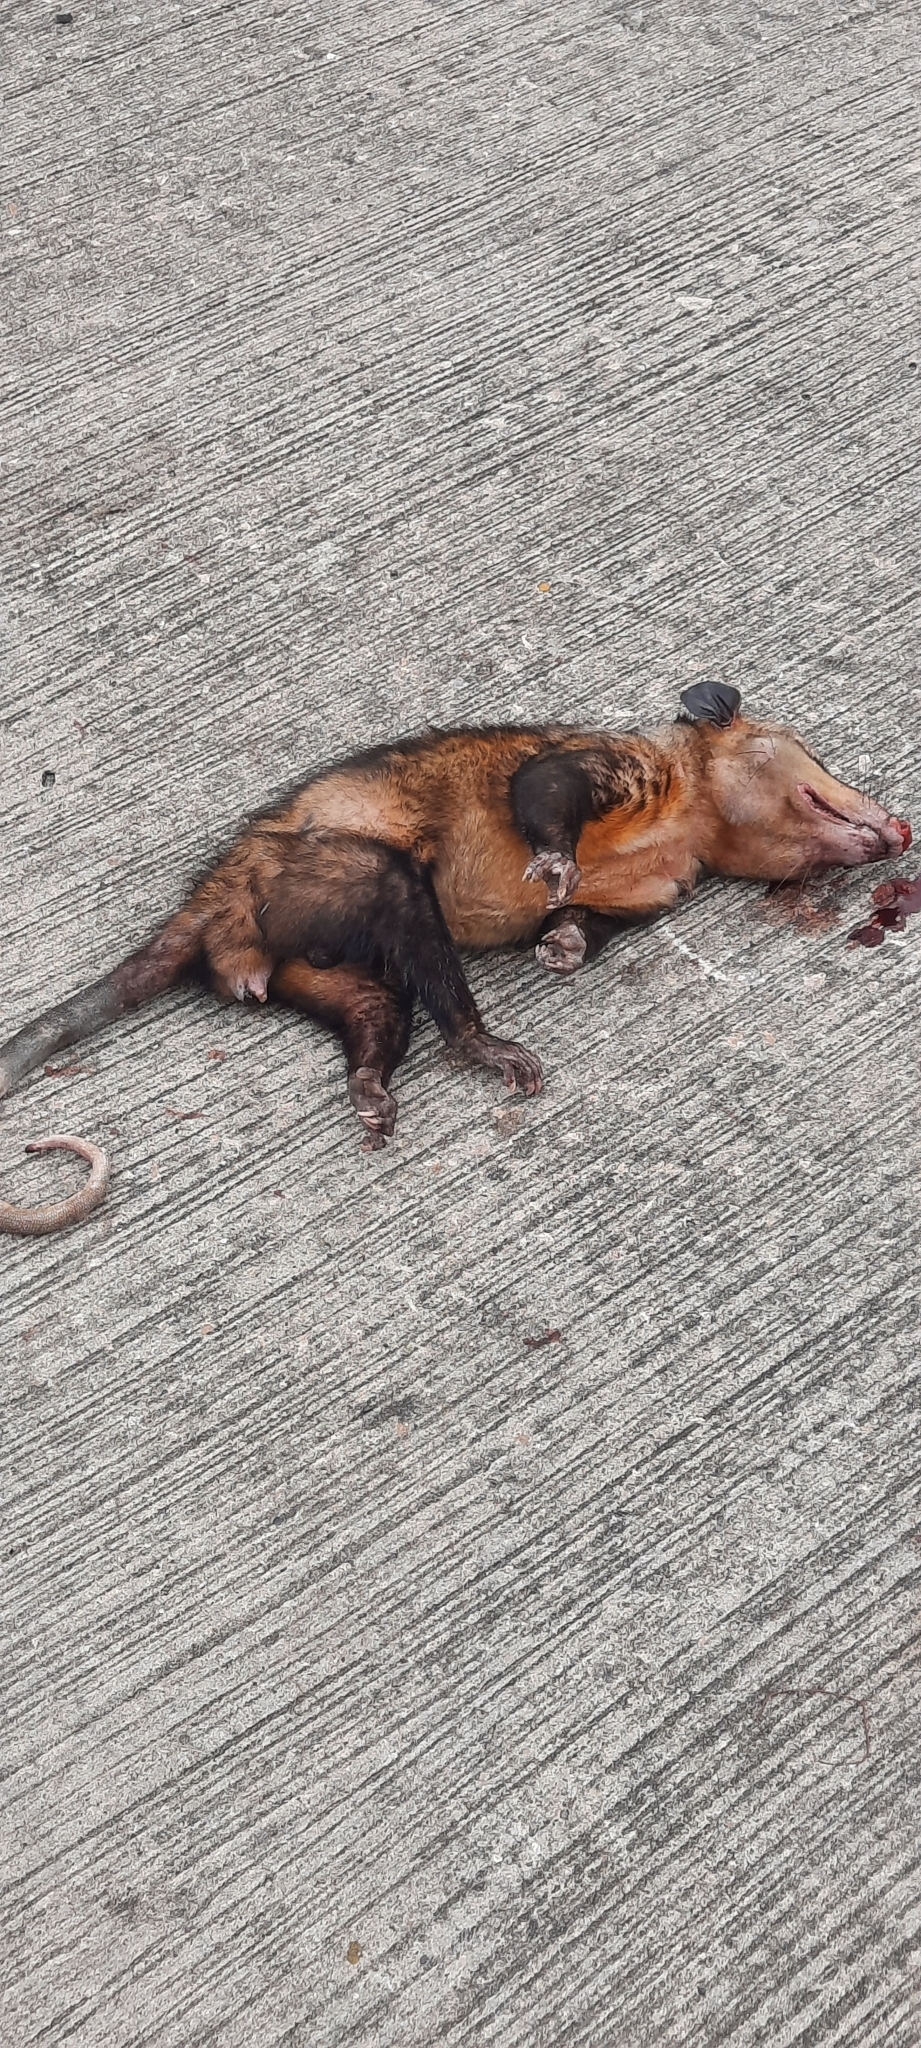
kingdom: Animalia
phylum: Chordata
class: Mammalia
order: Didelphimorphia
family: Didelphidae
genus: Didelphis
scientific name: Didelphis marsupialis
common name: Common opossum
